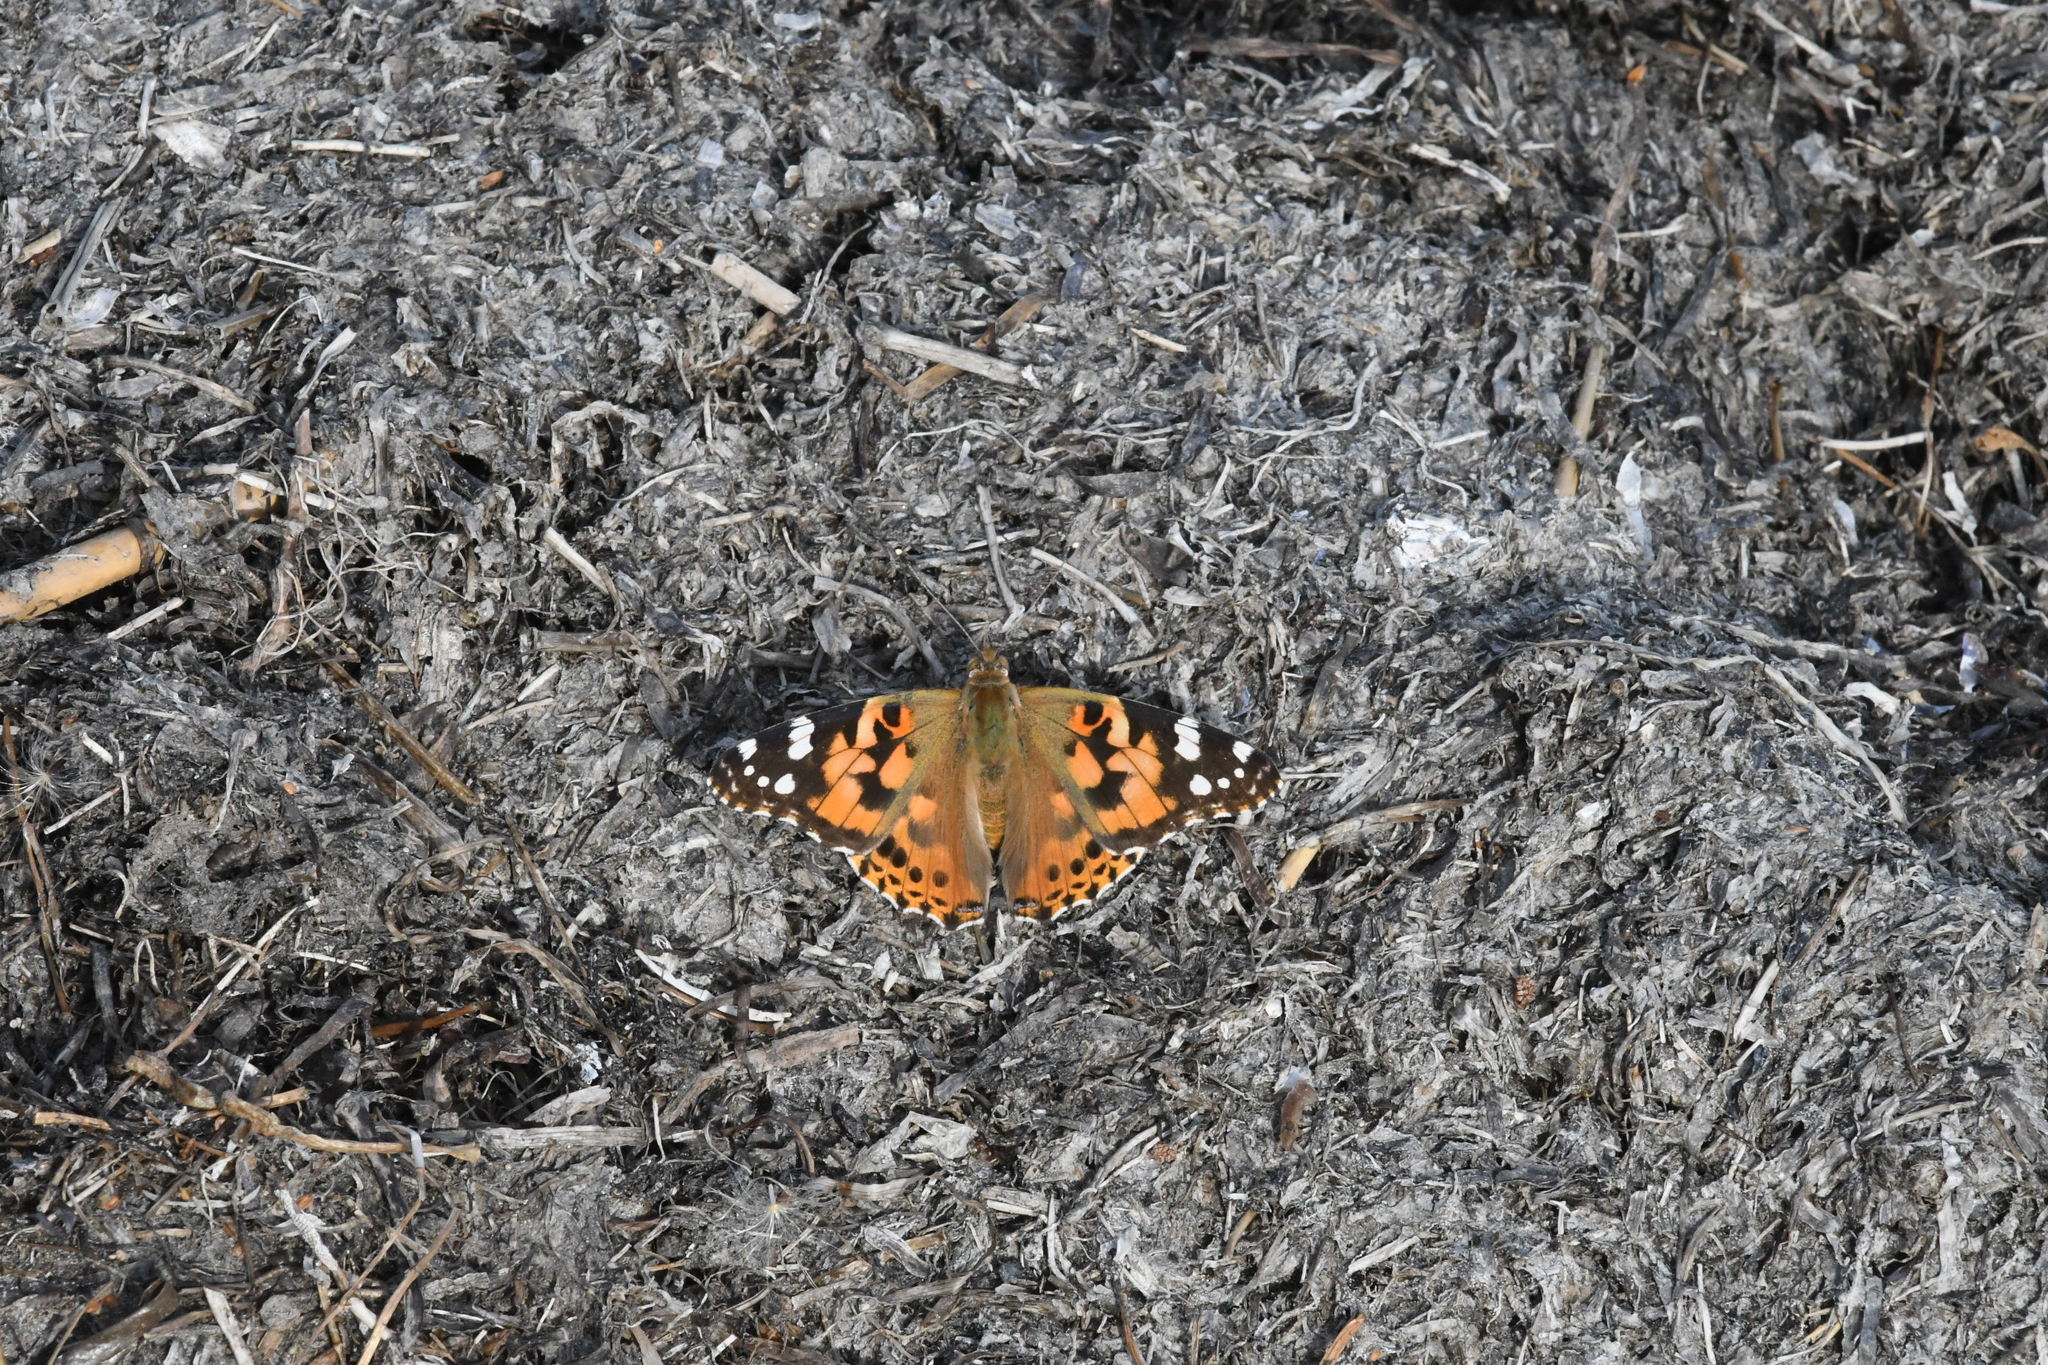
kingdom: Animalia
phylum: Arthropoda
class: Insecta
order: Lepidoptera
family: Nymphalidae
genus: Vanessa
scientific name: Vanessa cardui
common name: Painted lady
